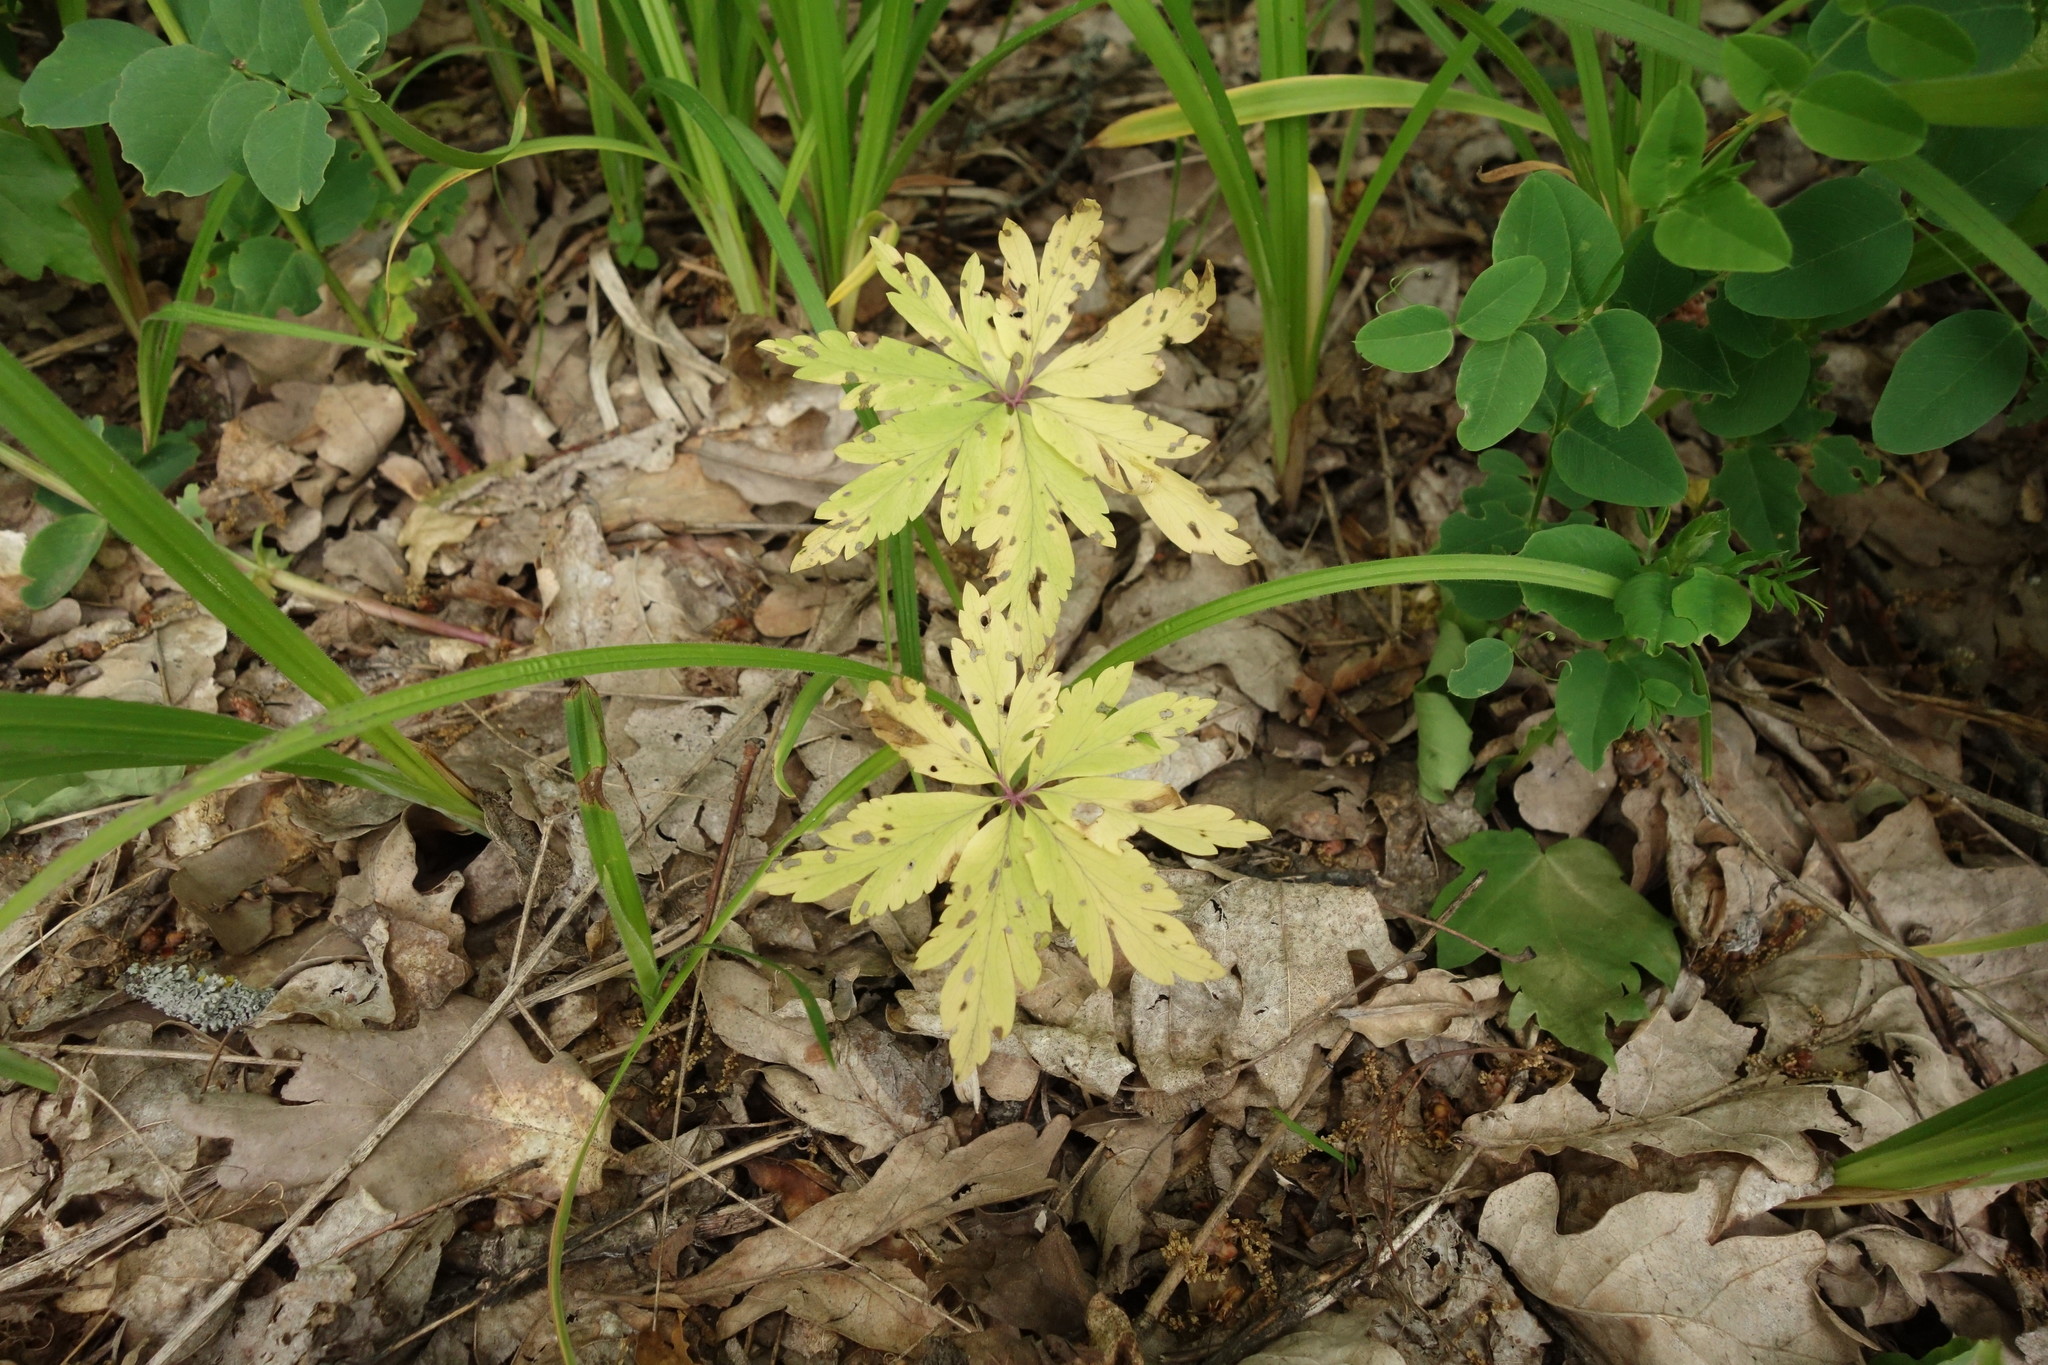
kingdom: Plantae
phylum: Tracheophyta
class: Magnoliopsida
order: Ranunculales
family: Ranunculaceae
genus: Anemone
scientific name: Anemone ranunculoides
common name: Yellow anemone
